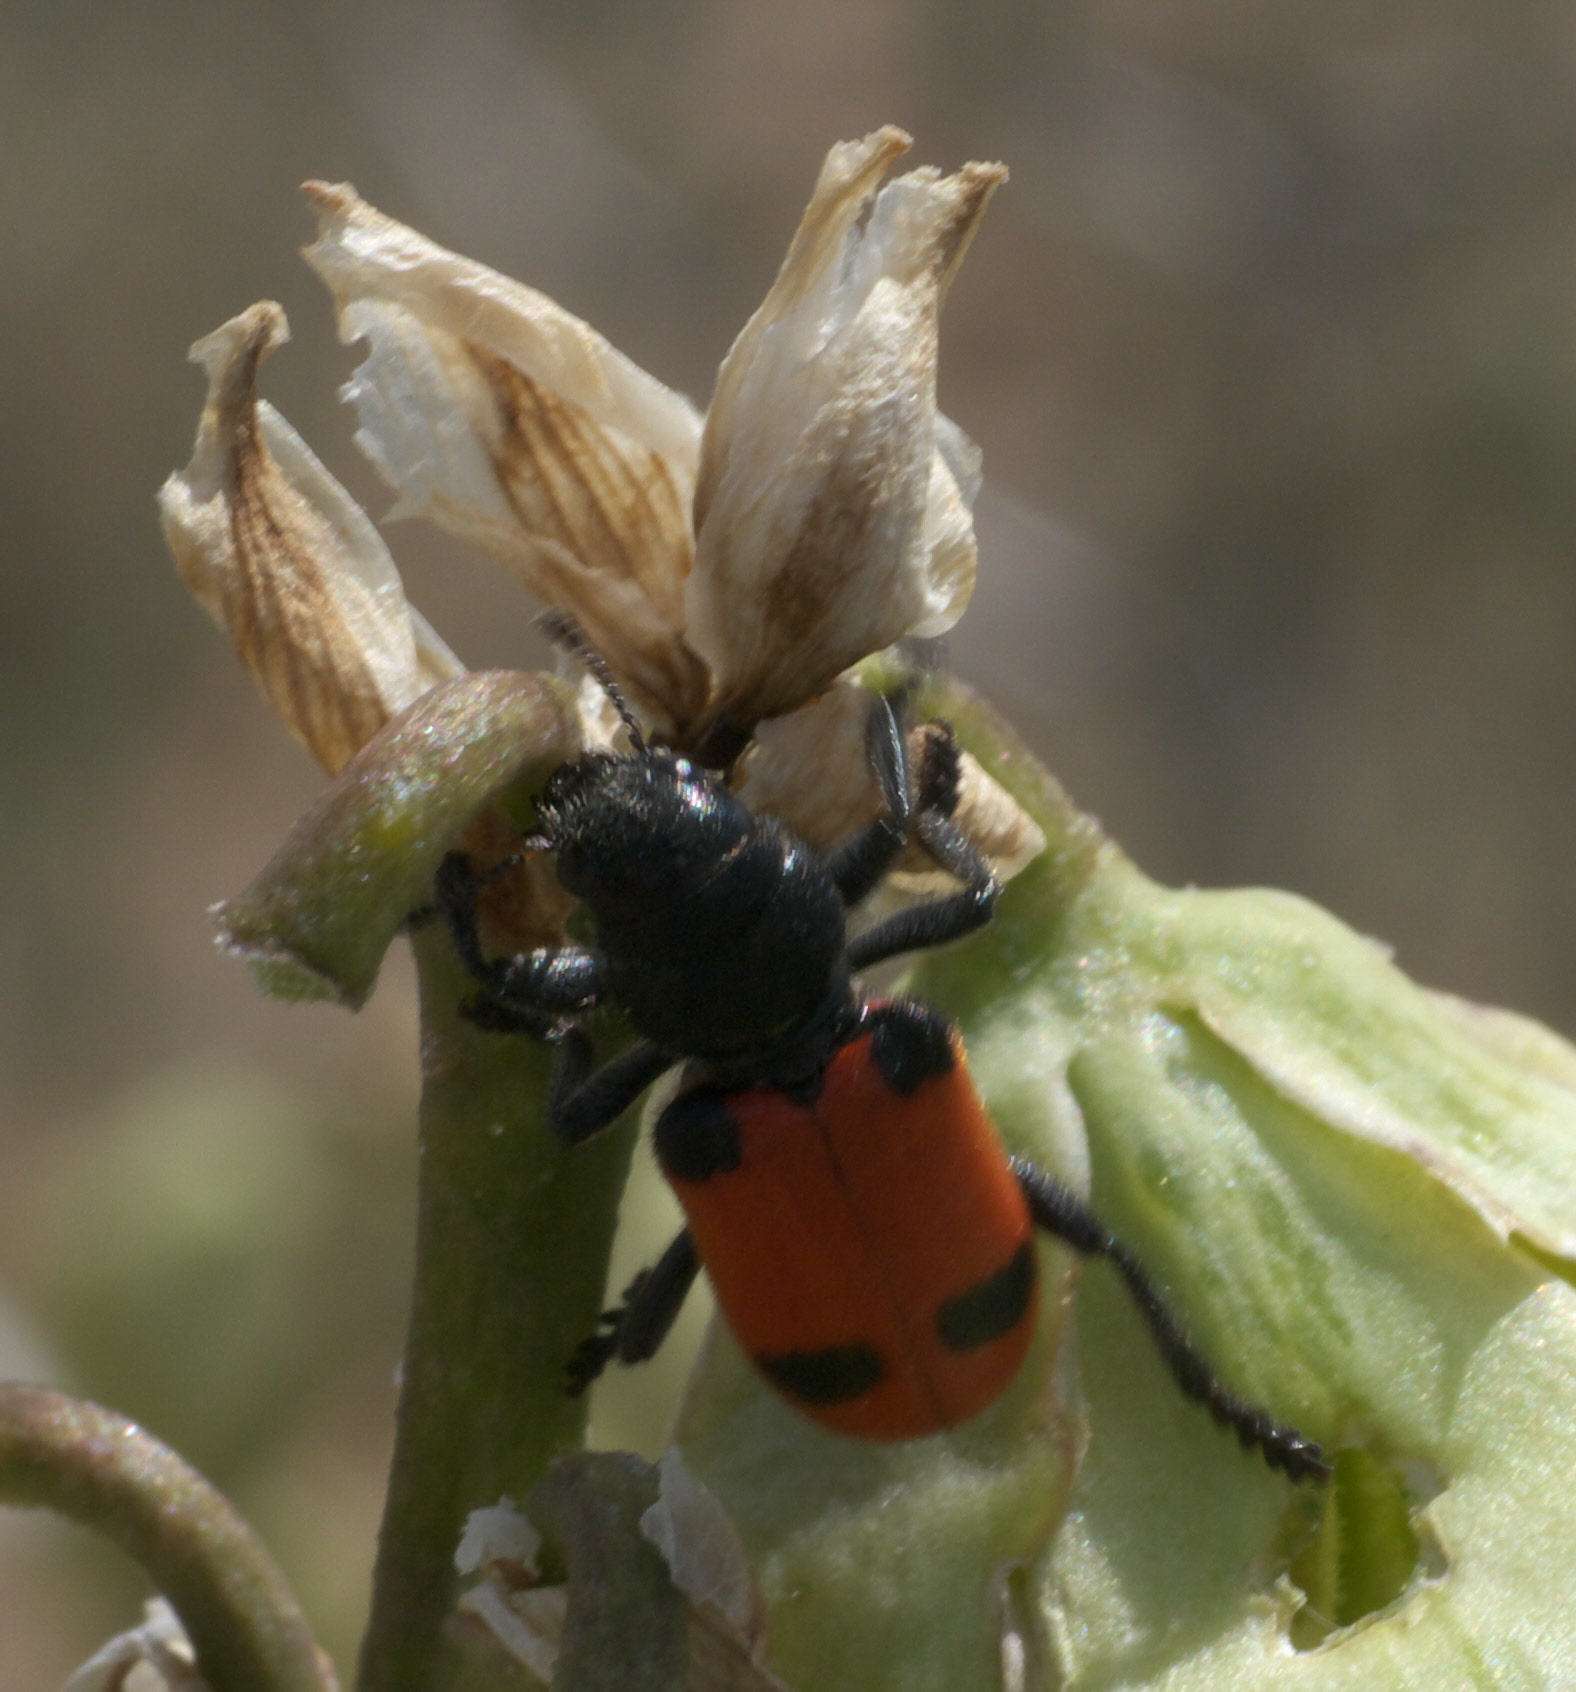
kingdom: Animalia
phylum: Arthropoda
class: Insecta
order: Coleoptera
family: Cleridae
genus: Enoclerus
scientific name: Enoclerus
